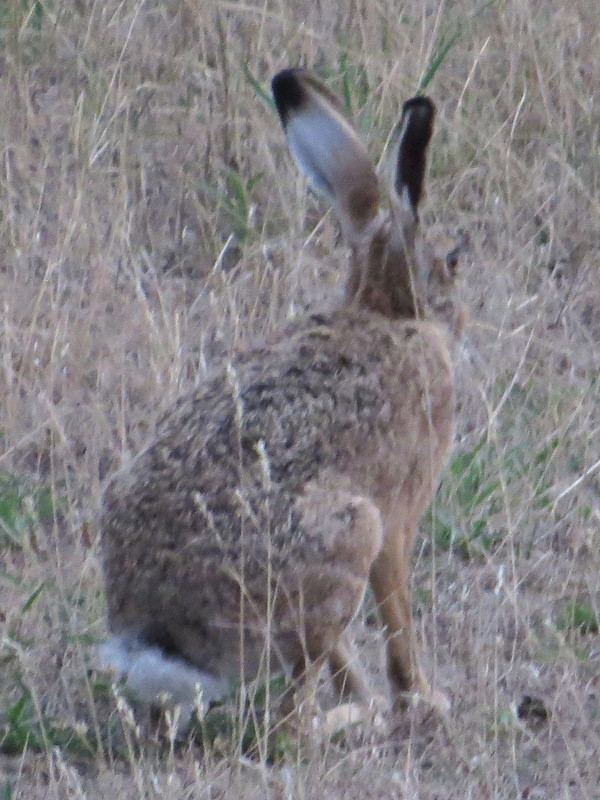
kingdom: Animalia
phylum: Chordata
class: Mammalia
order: Lagomorpha
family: Leporidae
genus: Lepus
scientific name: Lepus europaeus
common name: European hare
